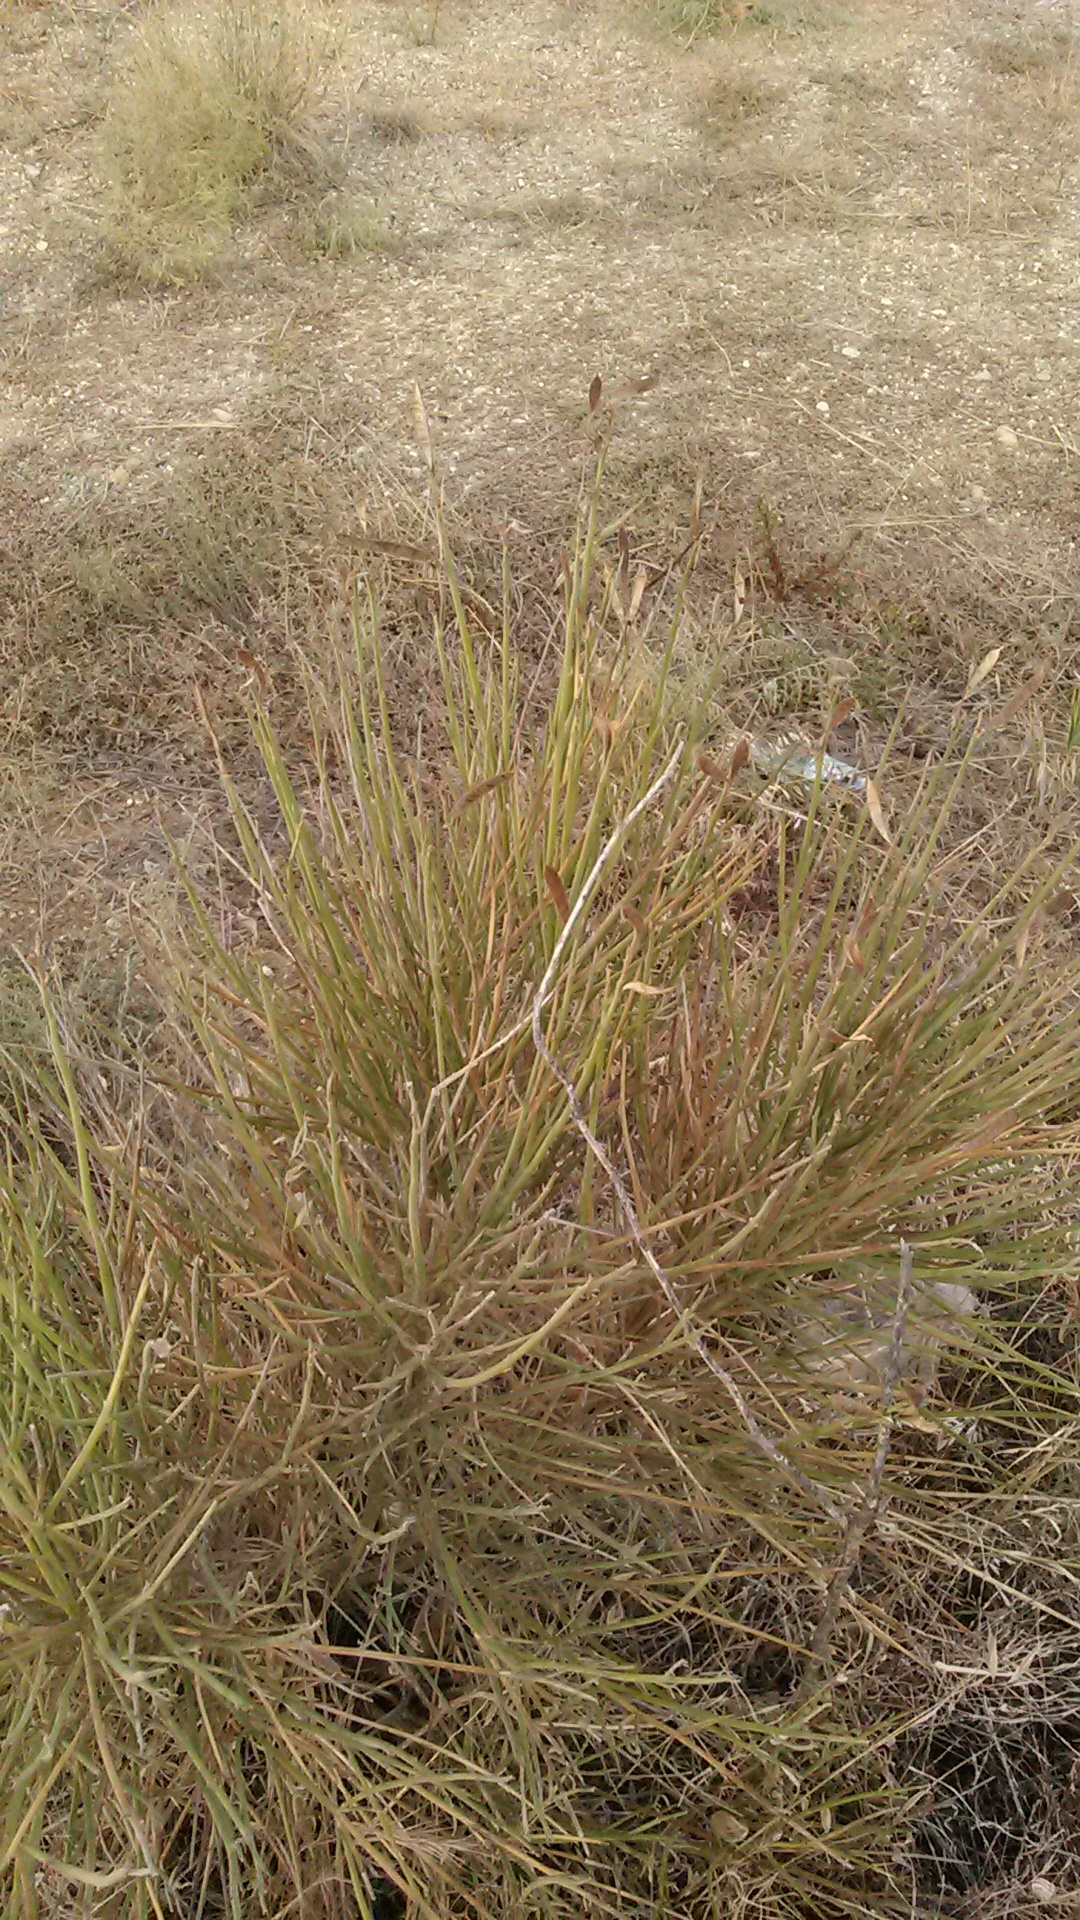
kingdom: Plantae
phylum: Tracheophyta
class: Magnoliopsida
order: Fabales
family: Fabaceae
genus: Spartium
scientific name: Spartium junceum
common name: Spanish broom
